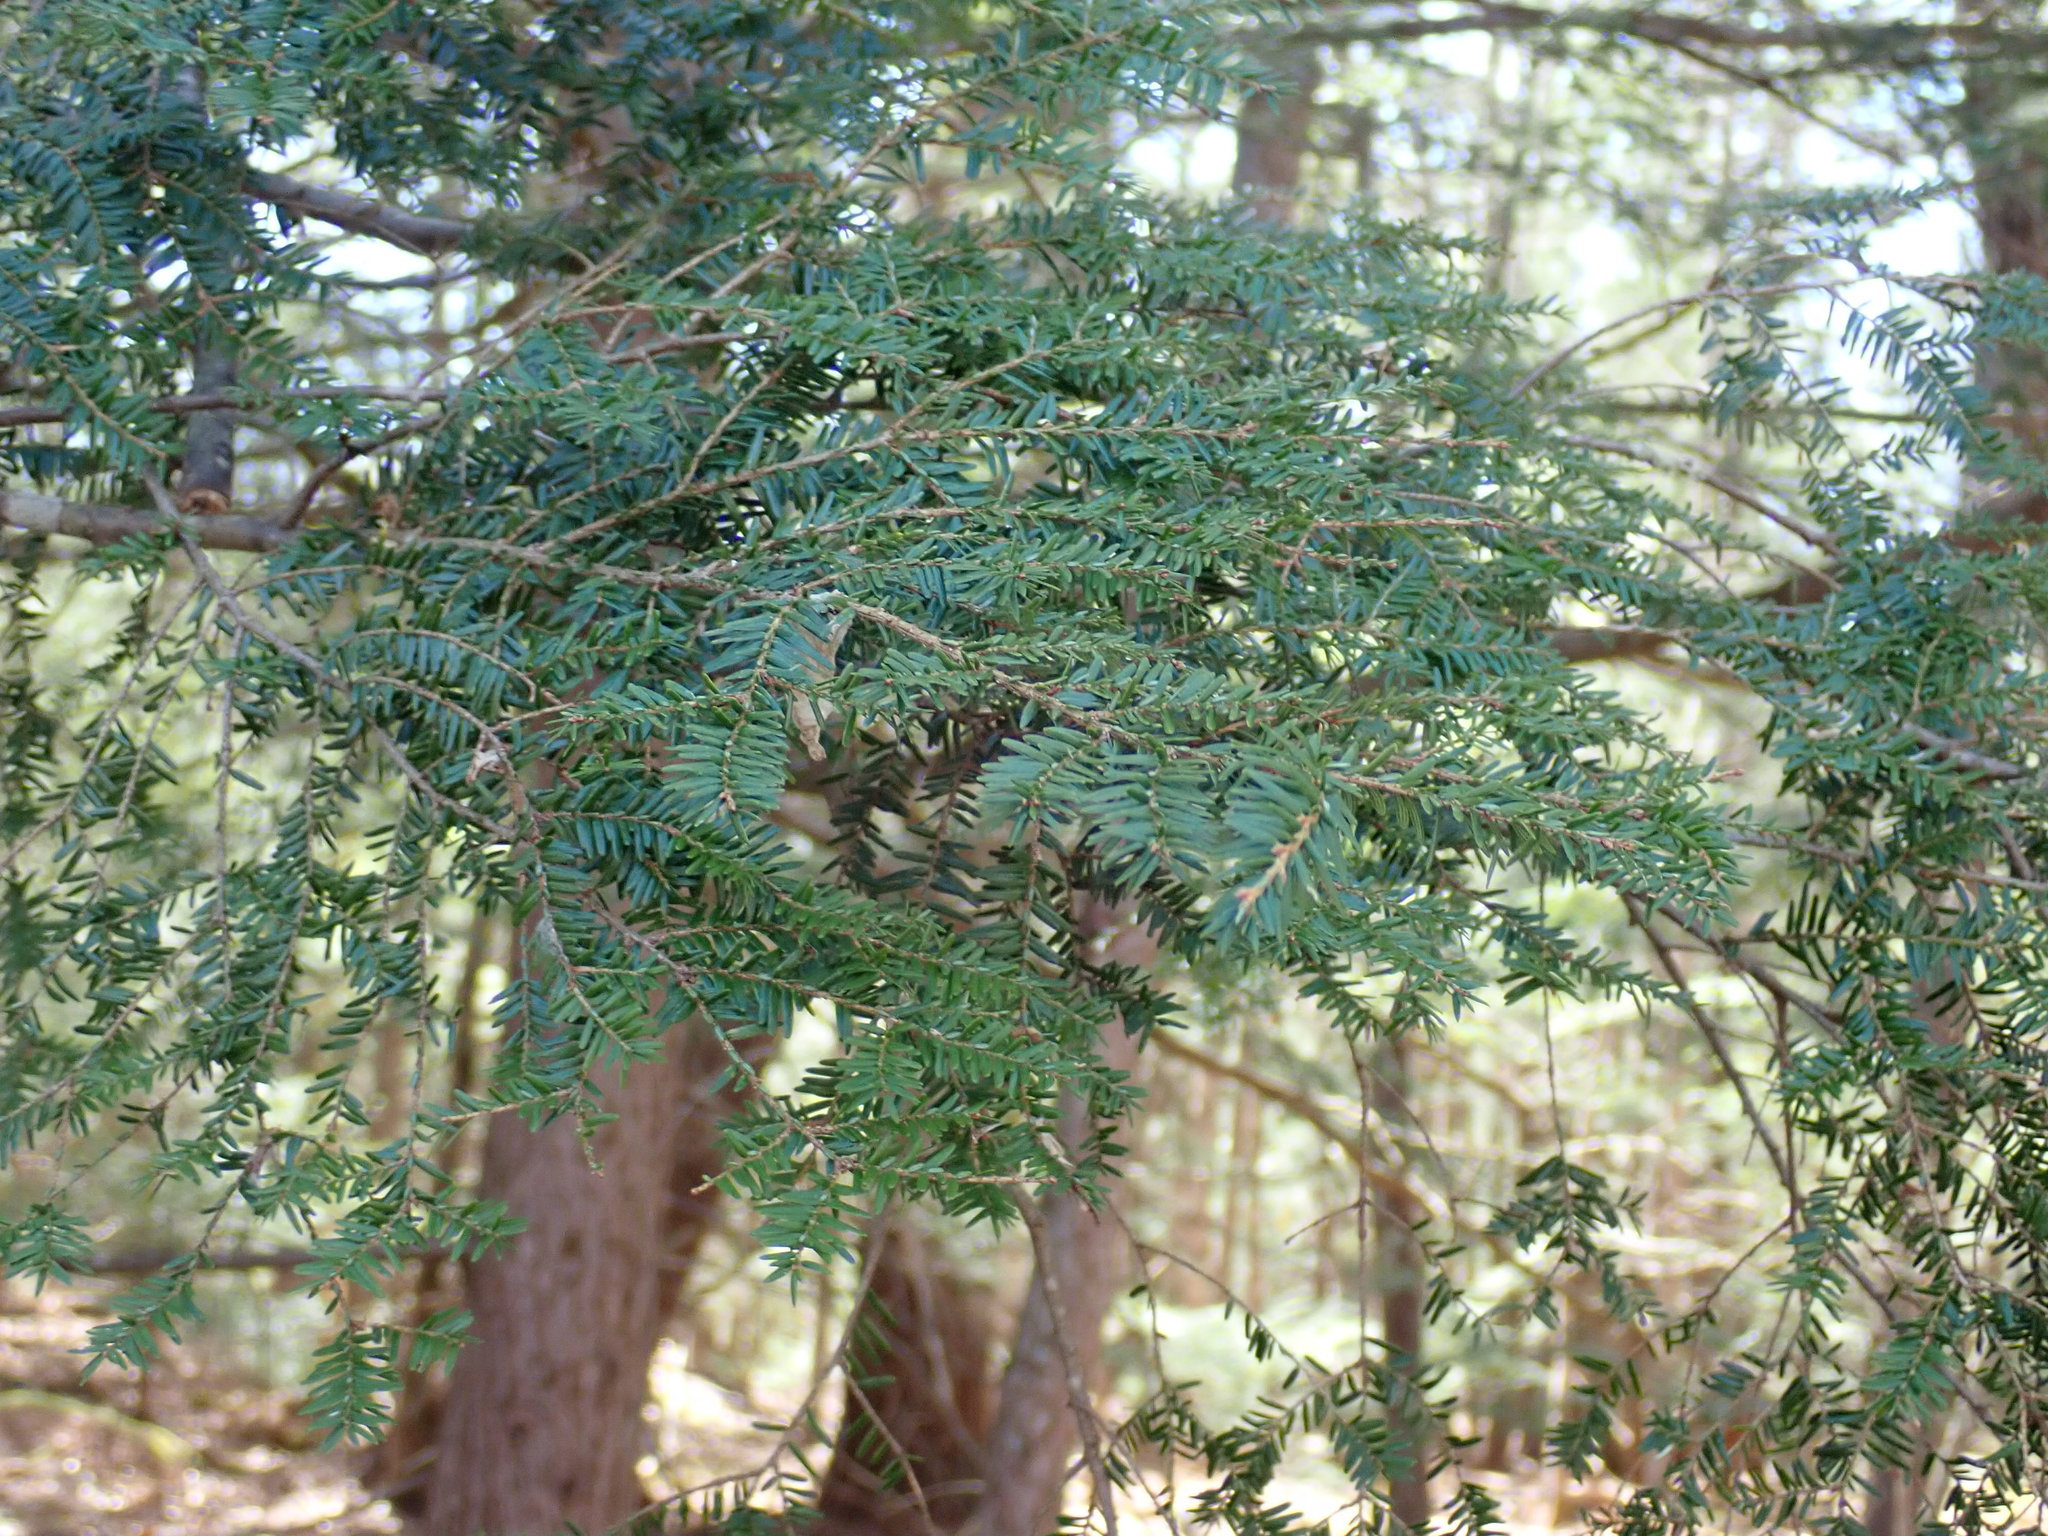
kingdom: Plantae
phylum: Tracheophyta
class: Pinopsida
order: Pinales
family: Pinaceae
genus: Tsuga
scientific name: Tsuga canadensis
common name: Eastern hemlock
